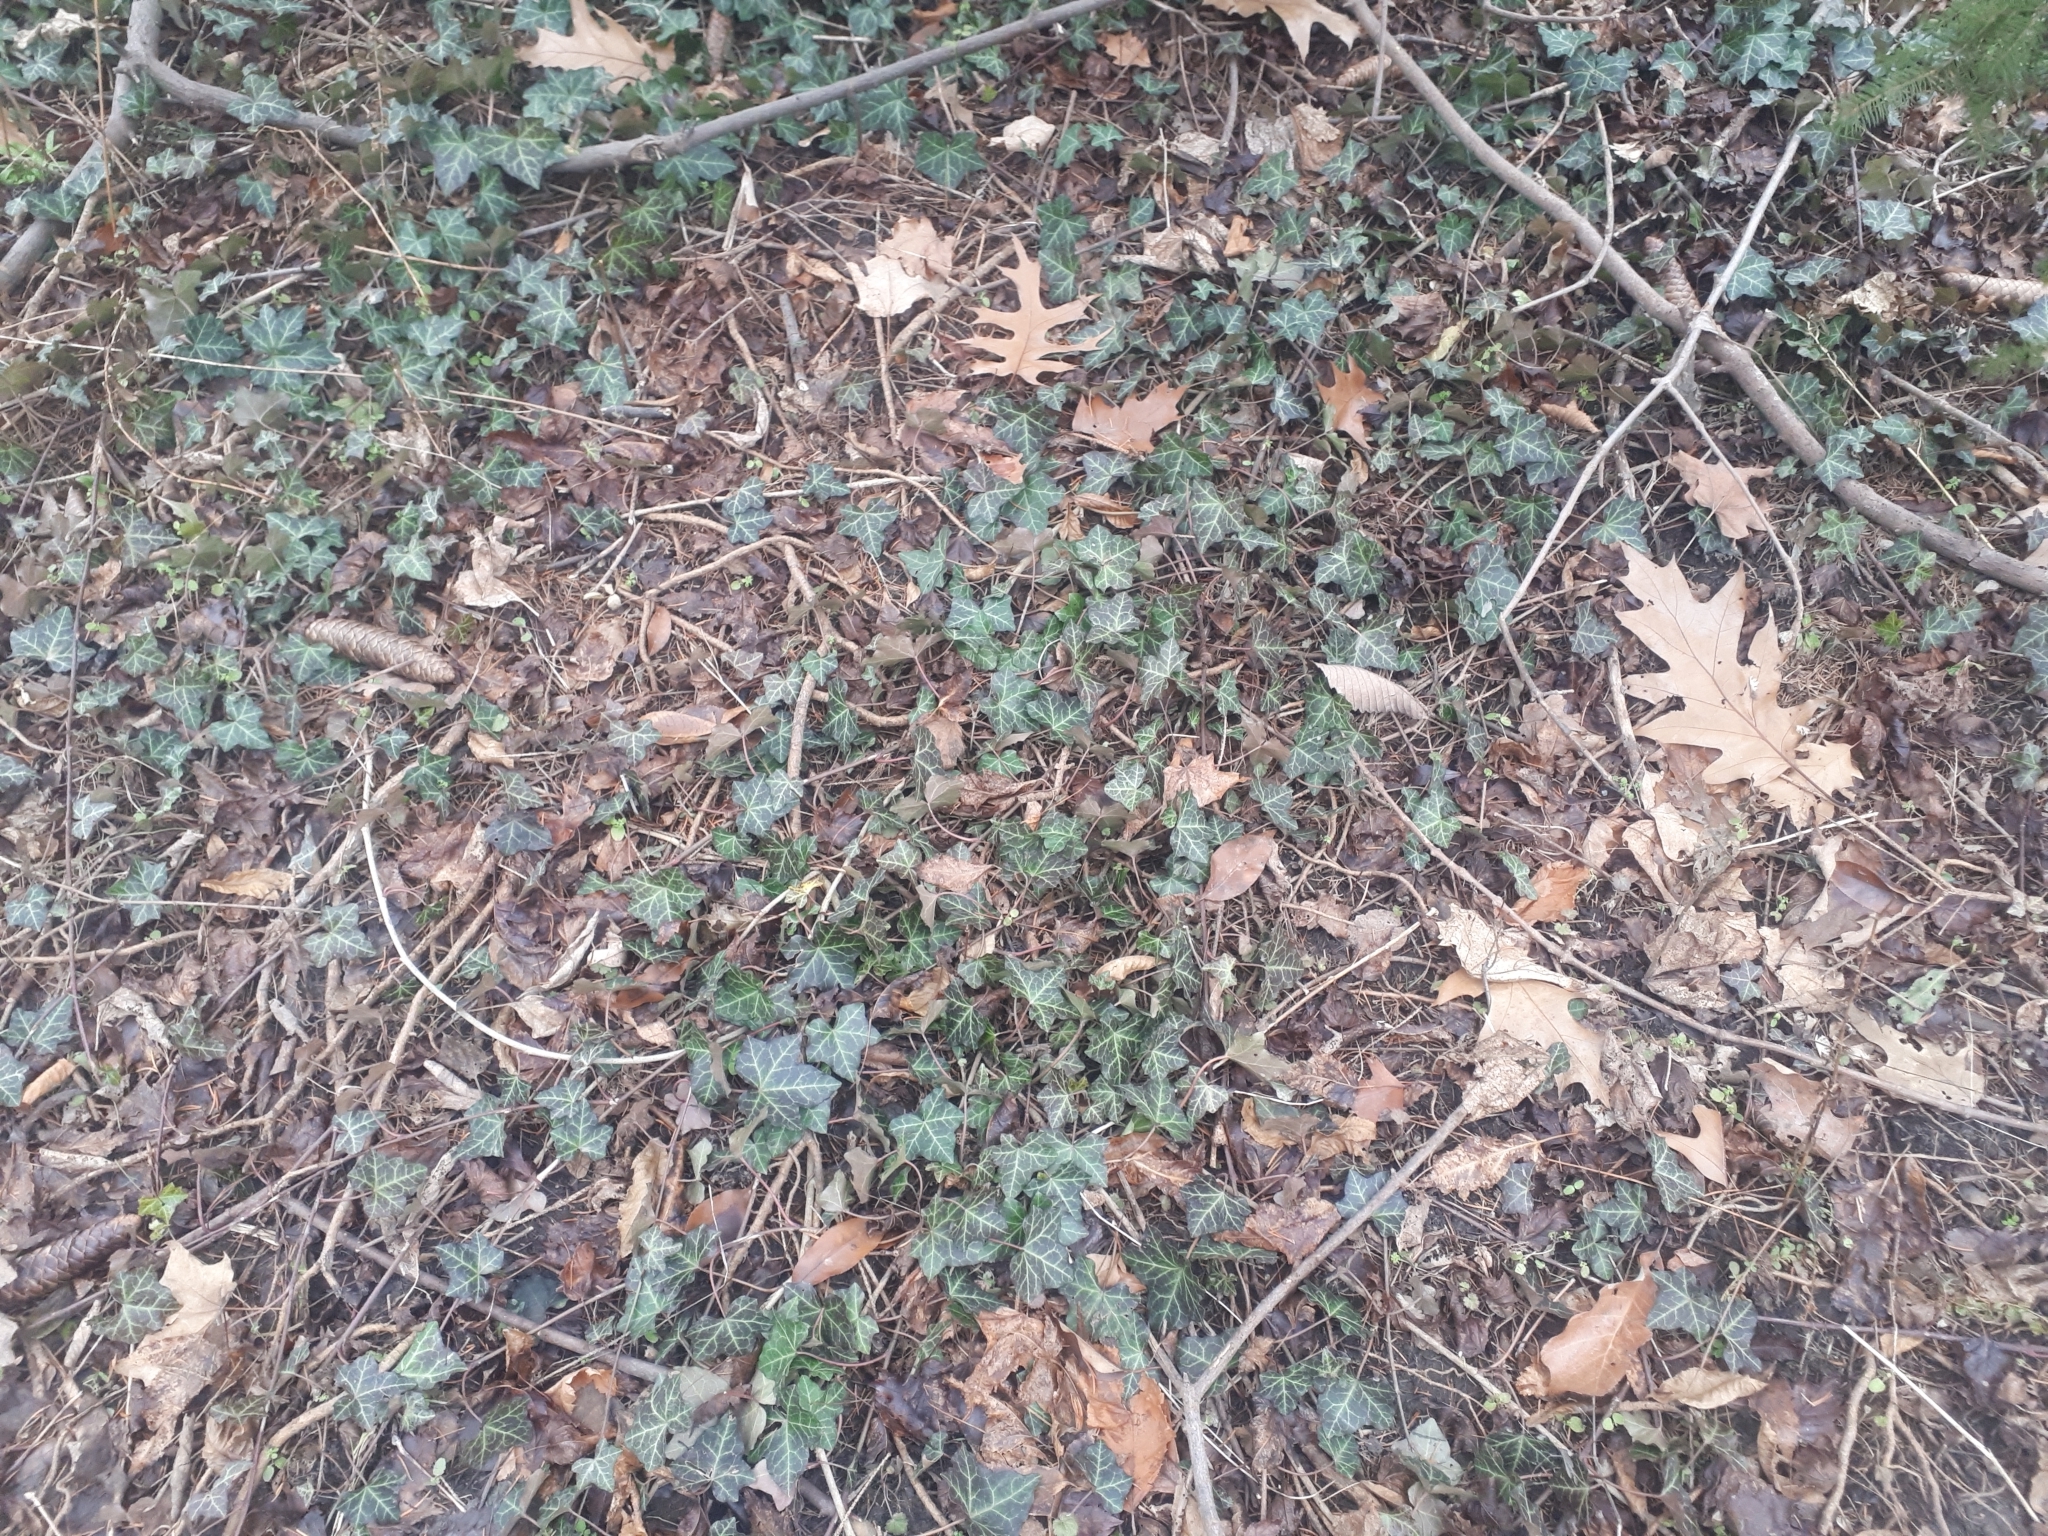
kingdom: Plantae
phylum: Tracheophyta
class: Magnoliopsida
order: Apiales
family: Araliaceae
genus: Hedera
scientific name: Hedera helix
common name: Ivy
